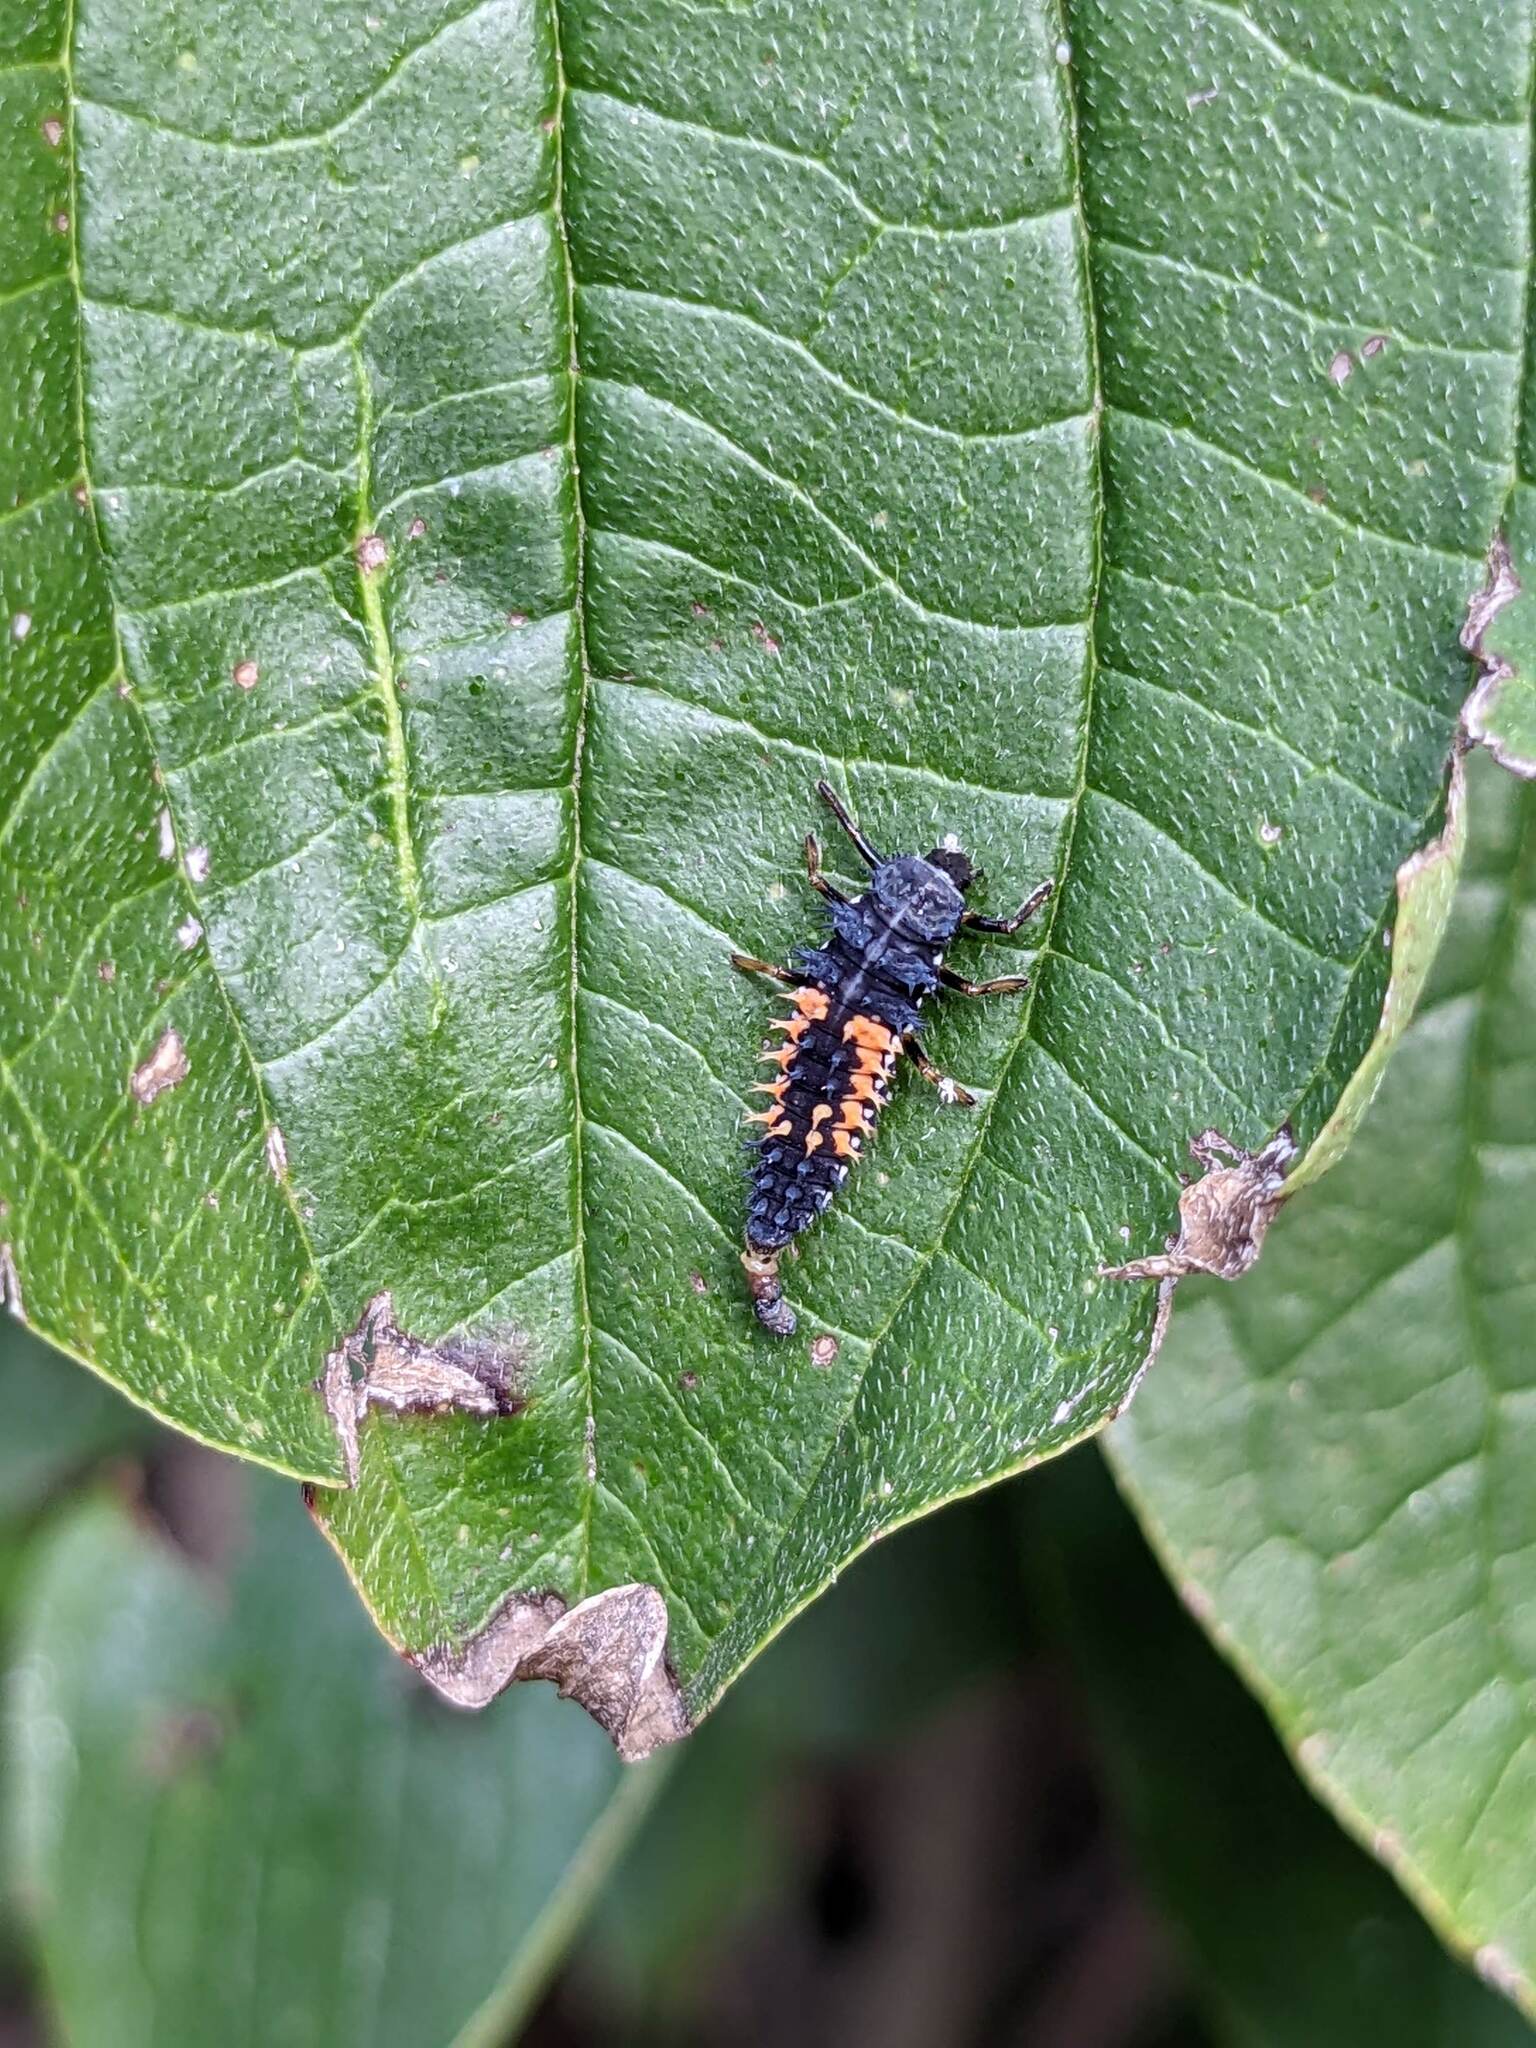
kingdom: Animalia
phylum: Arthropoda
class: Insecta
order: Coleoptera
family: Coccinellidae
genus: Harmonia
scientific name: Harmonia axyridis
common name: Harlequin ladybird
